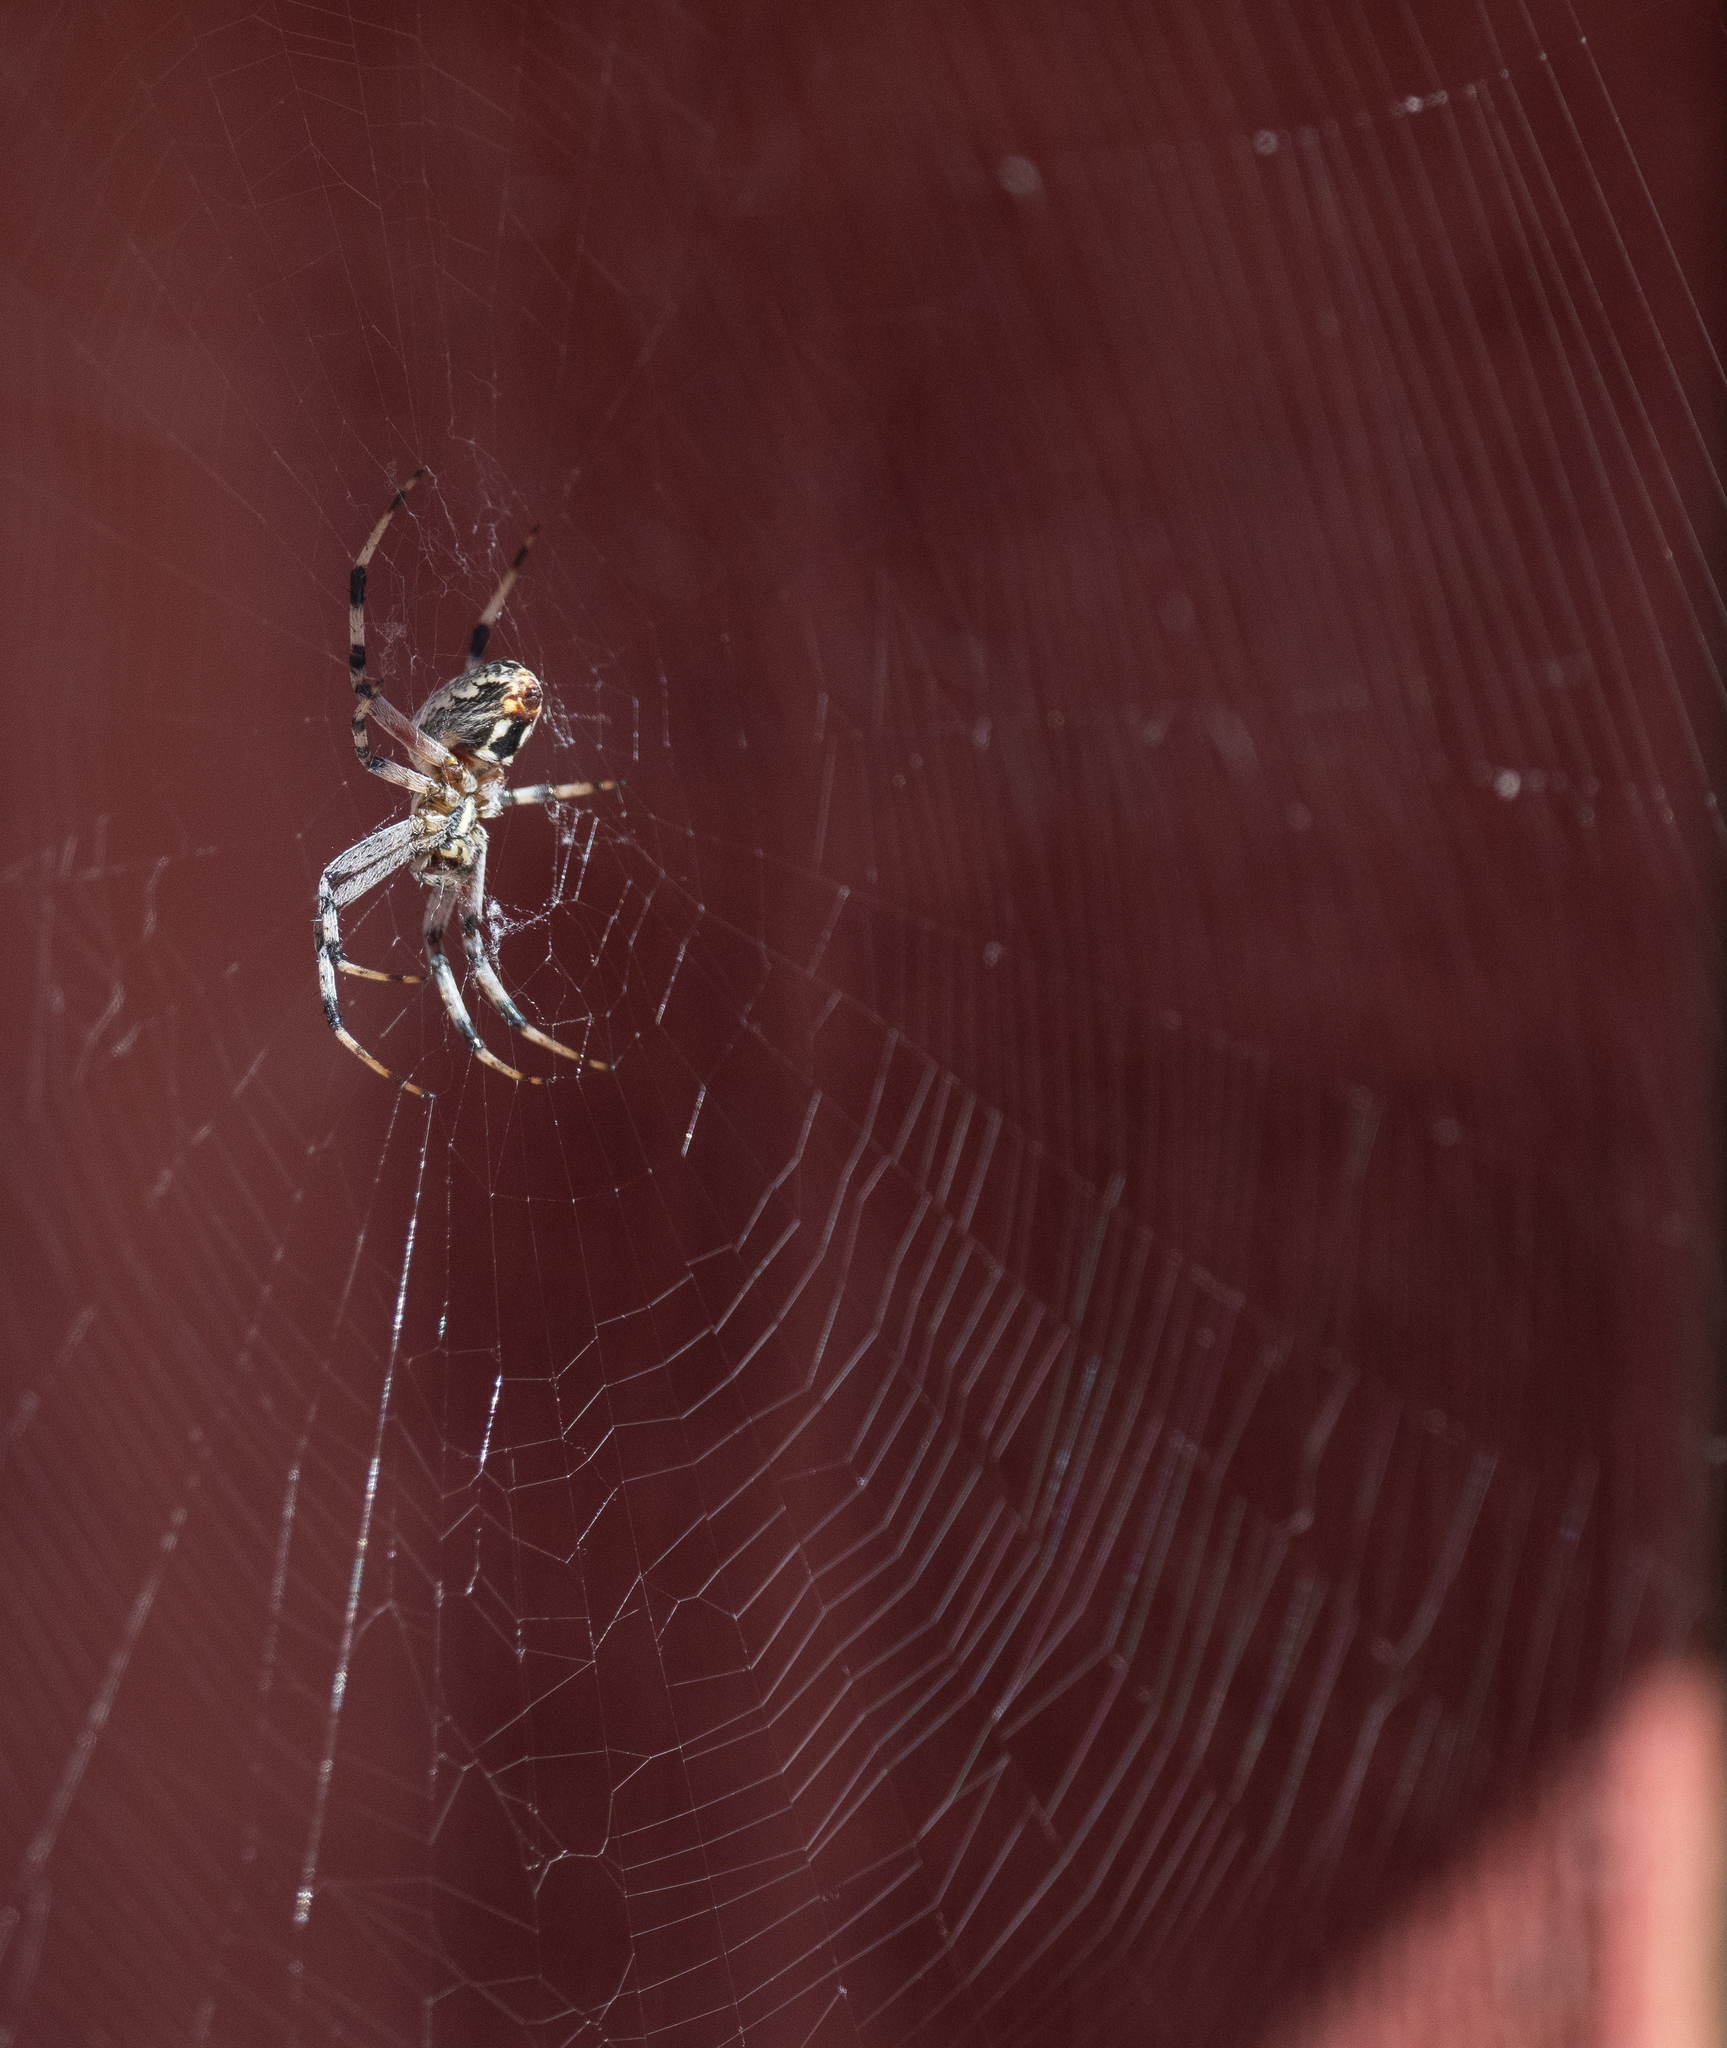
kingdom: Animalia
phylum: Arthropoda
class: Arachnida
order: Araneae
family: Araneidae
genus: Neoscona
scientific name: Neoscona oaxacensis
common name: Orb weavers
